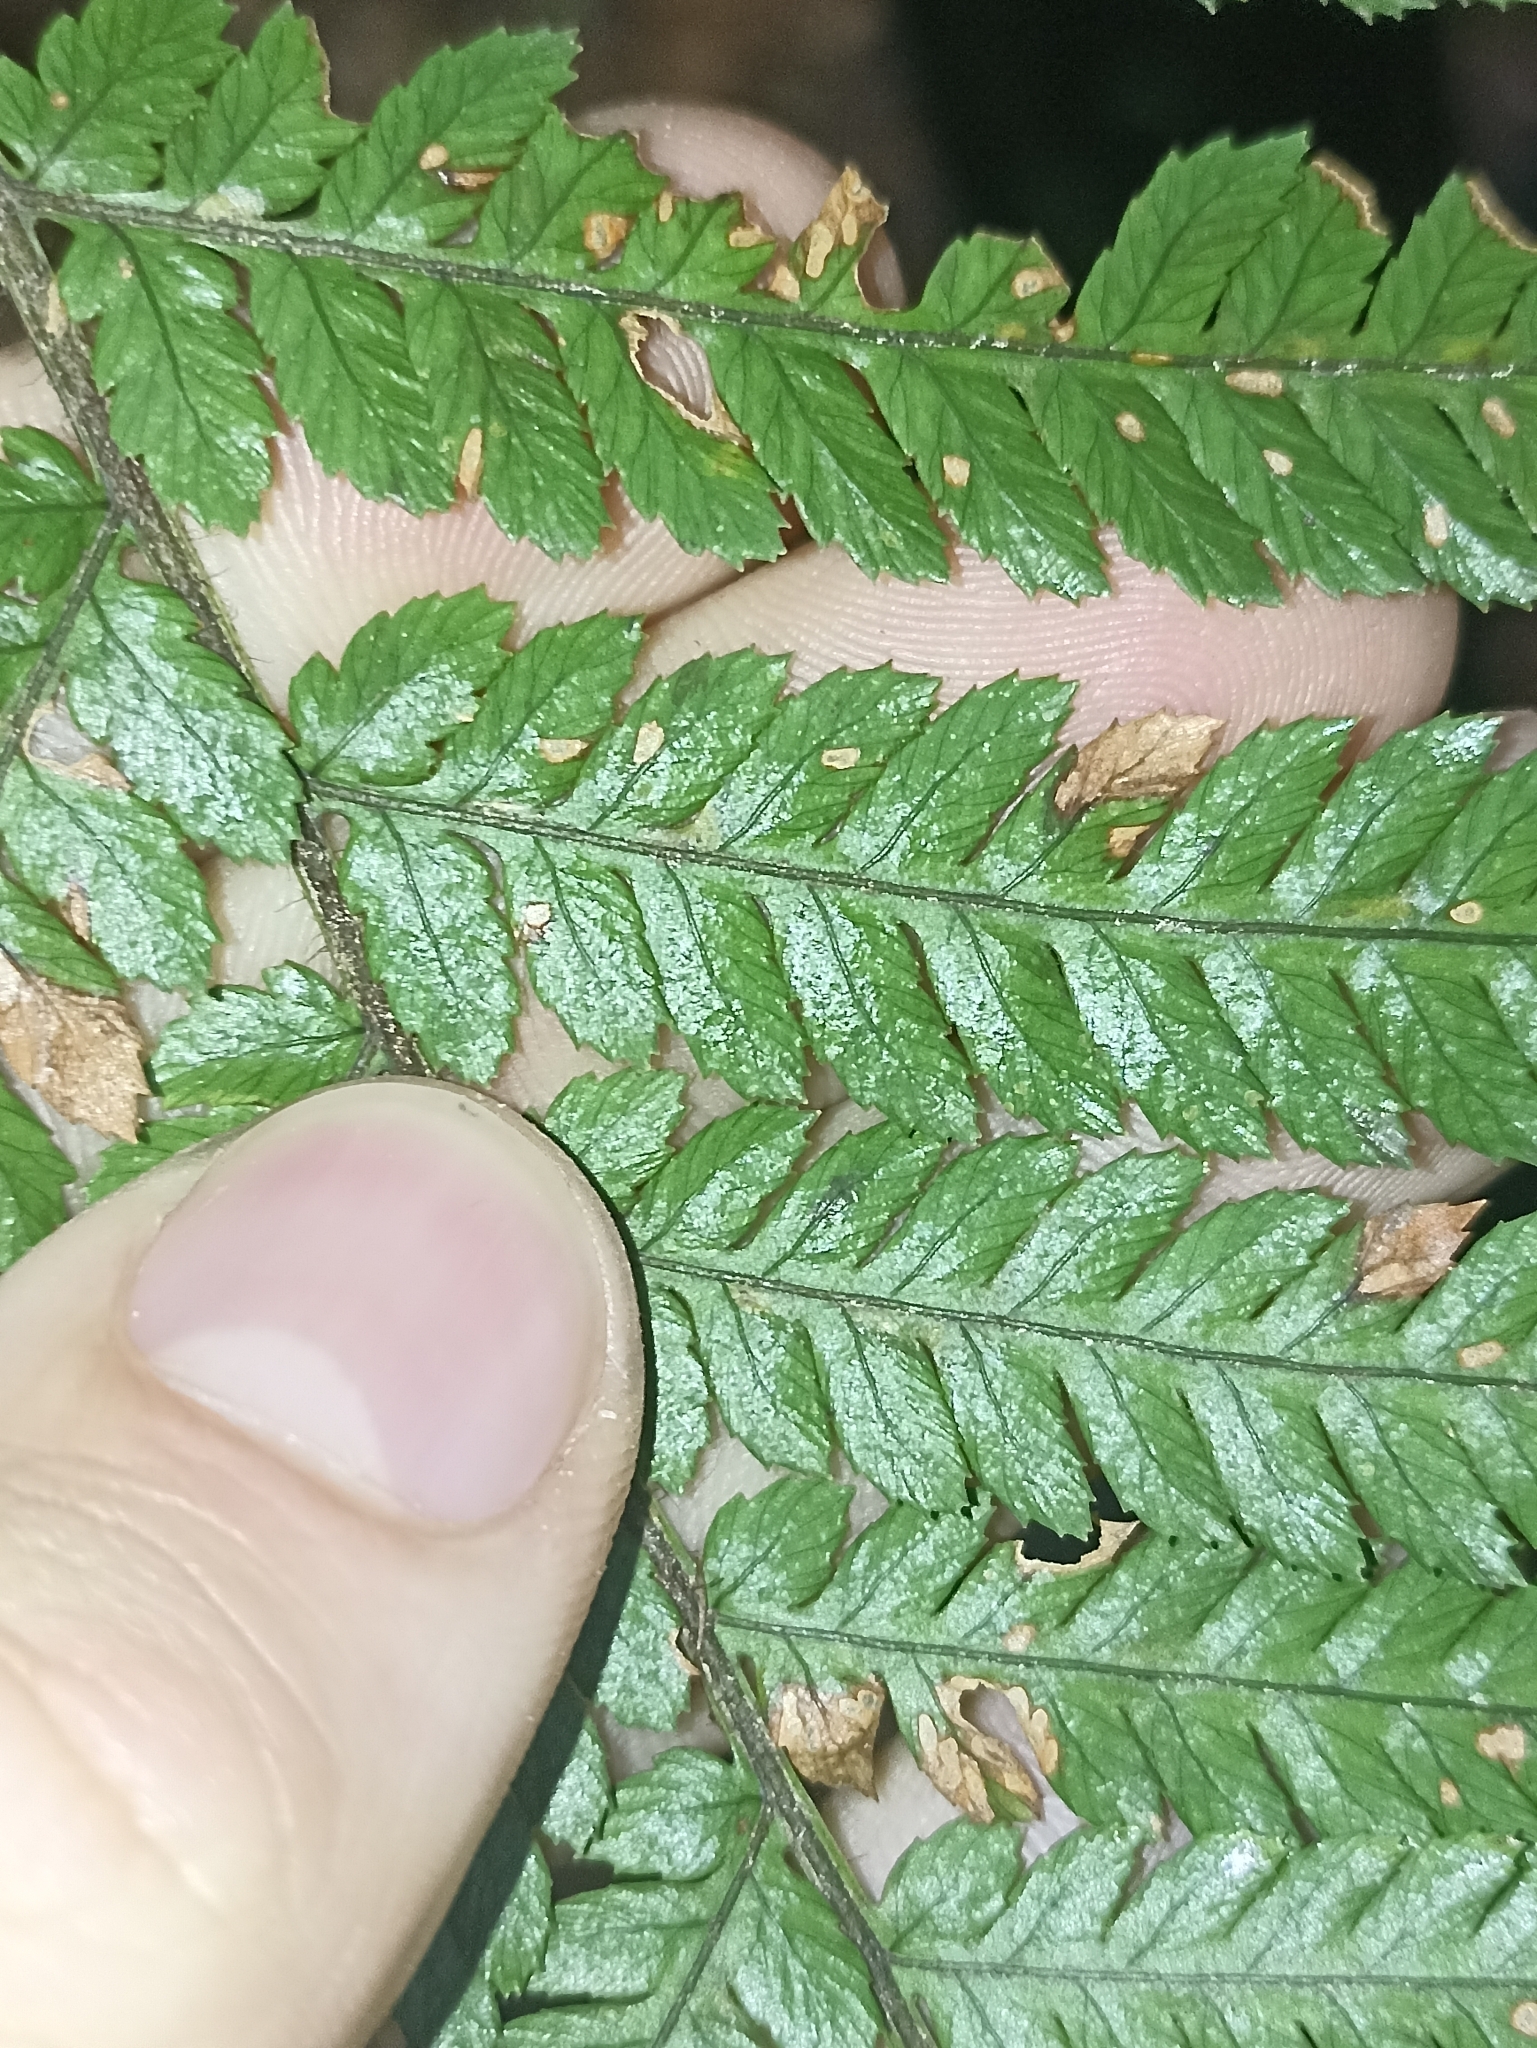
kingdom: Plantae
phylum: Tracheophyta
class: Polypodiopsida
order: Cyatheales
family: Dicksoniaceae
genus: Dicksonia
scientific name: Dicksonia squarrosa
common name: Hard treefern
